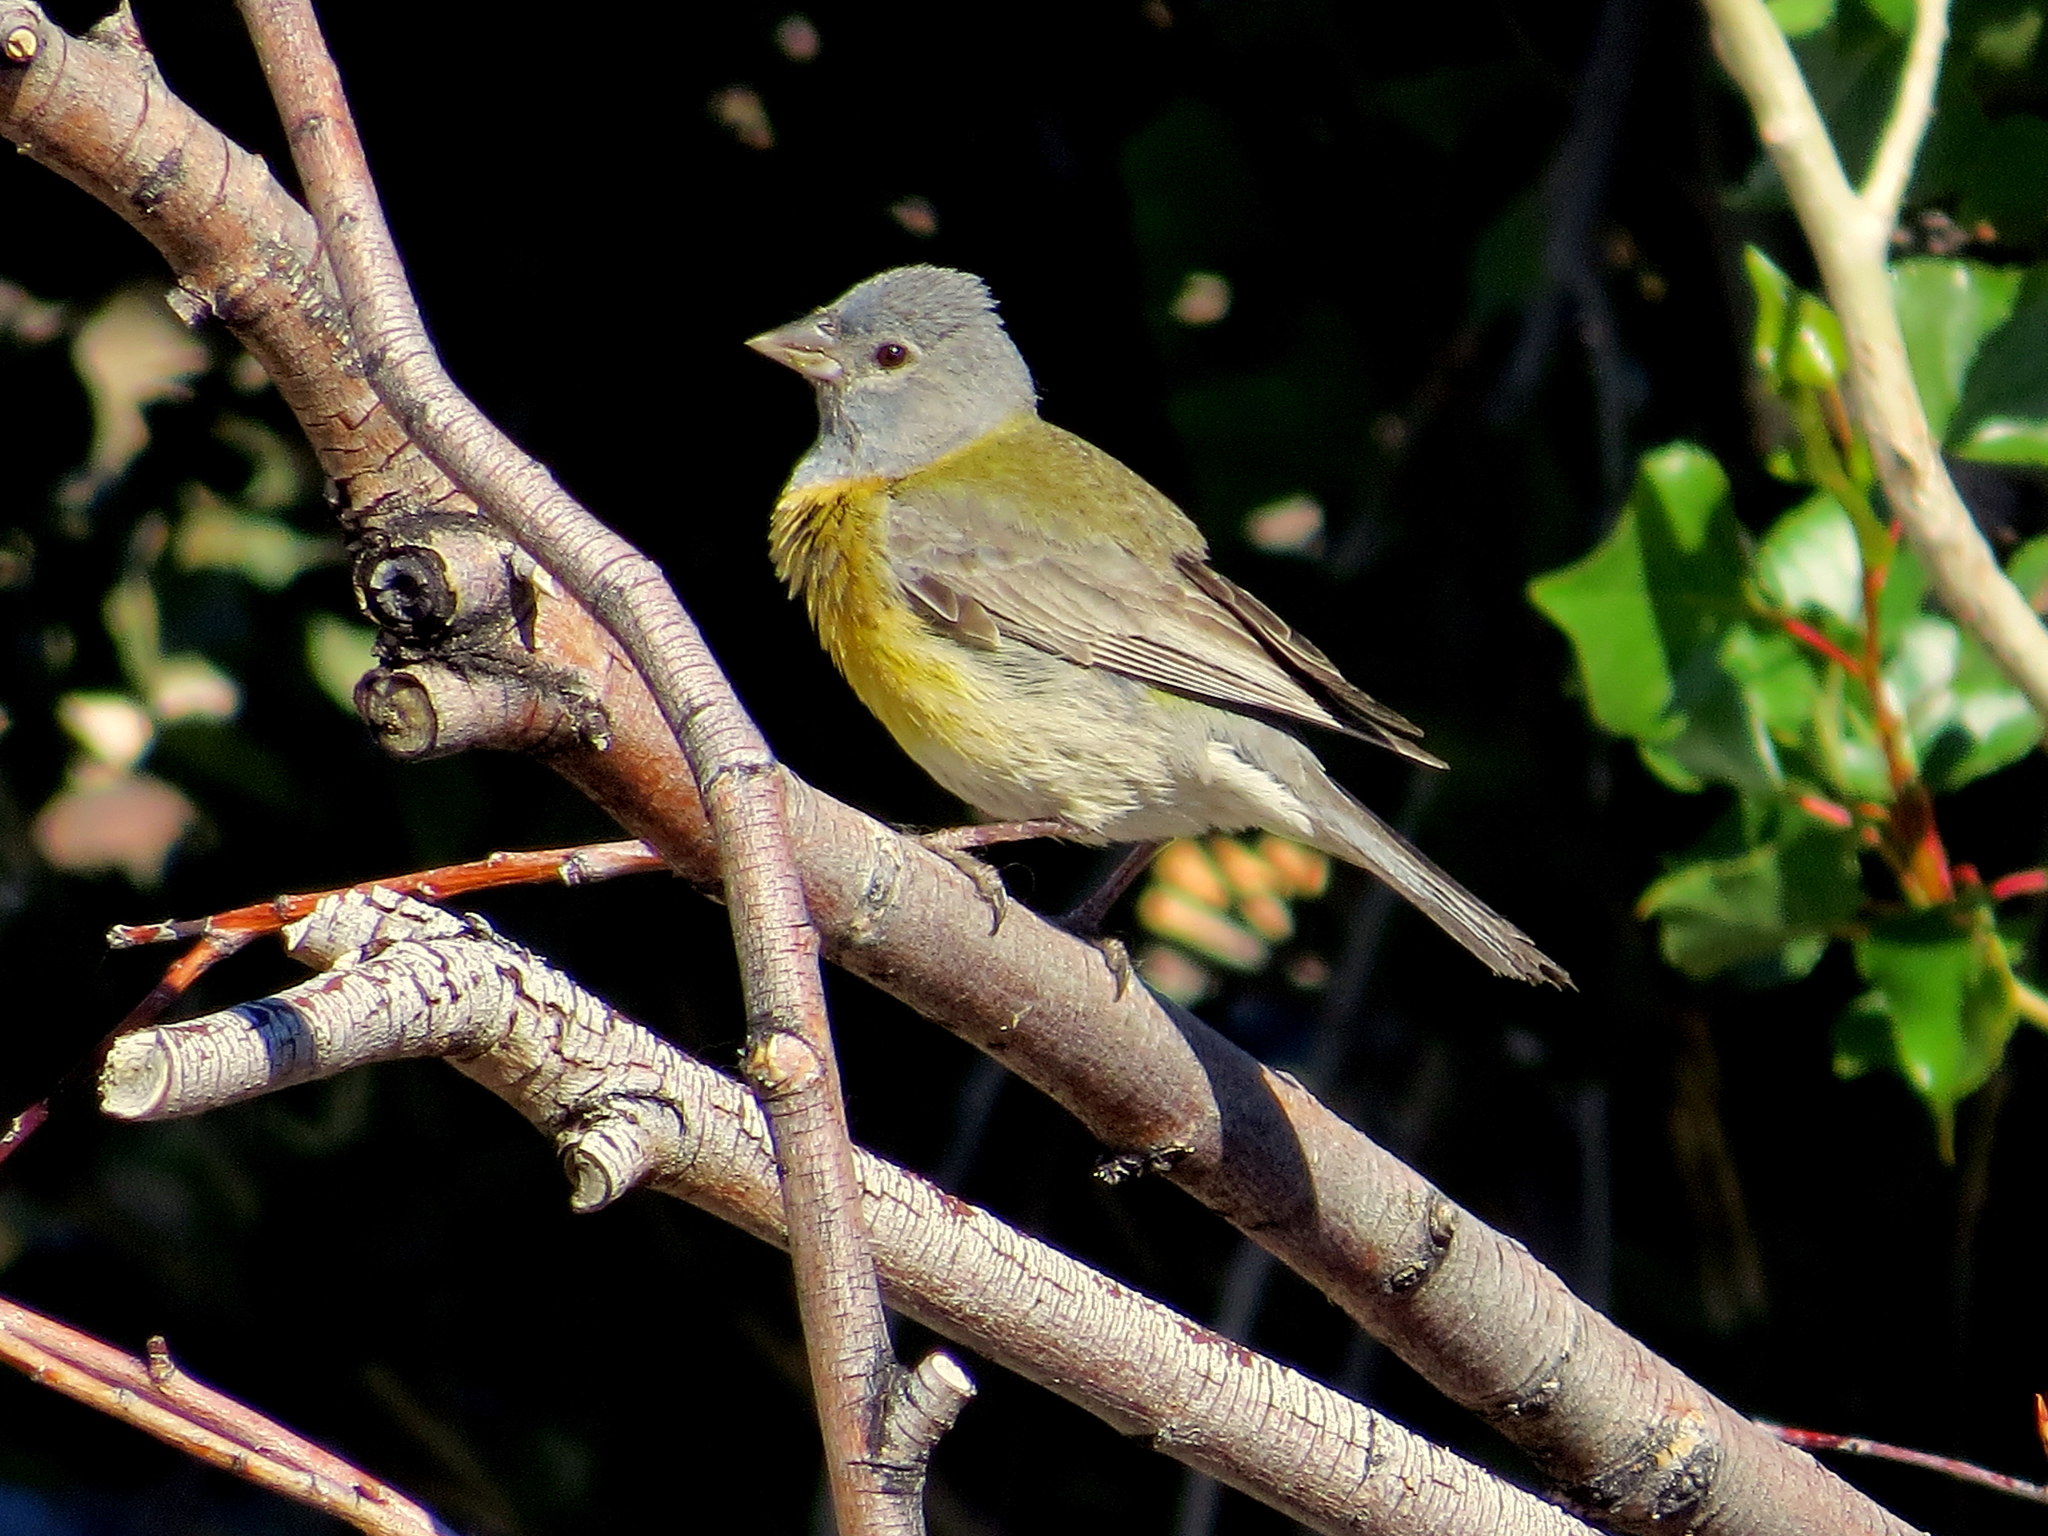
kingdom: Animalia
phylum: Chordata
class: Aves
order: Passeriformes
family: Thraupidae
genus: Phrygilus
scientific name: Phrygilus gayi
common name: Grey-hooded sierra finch
